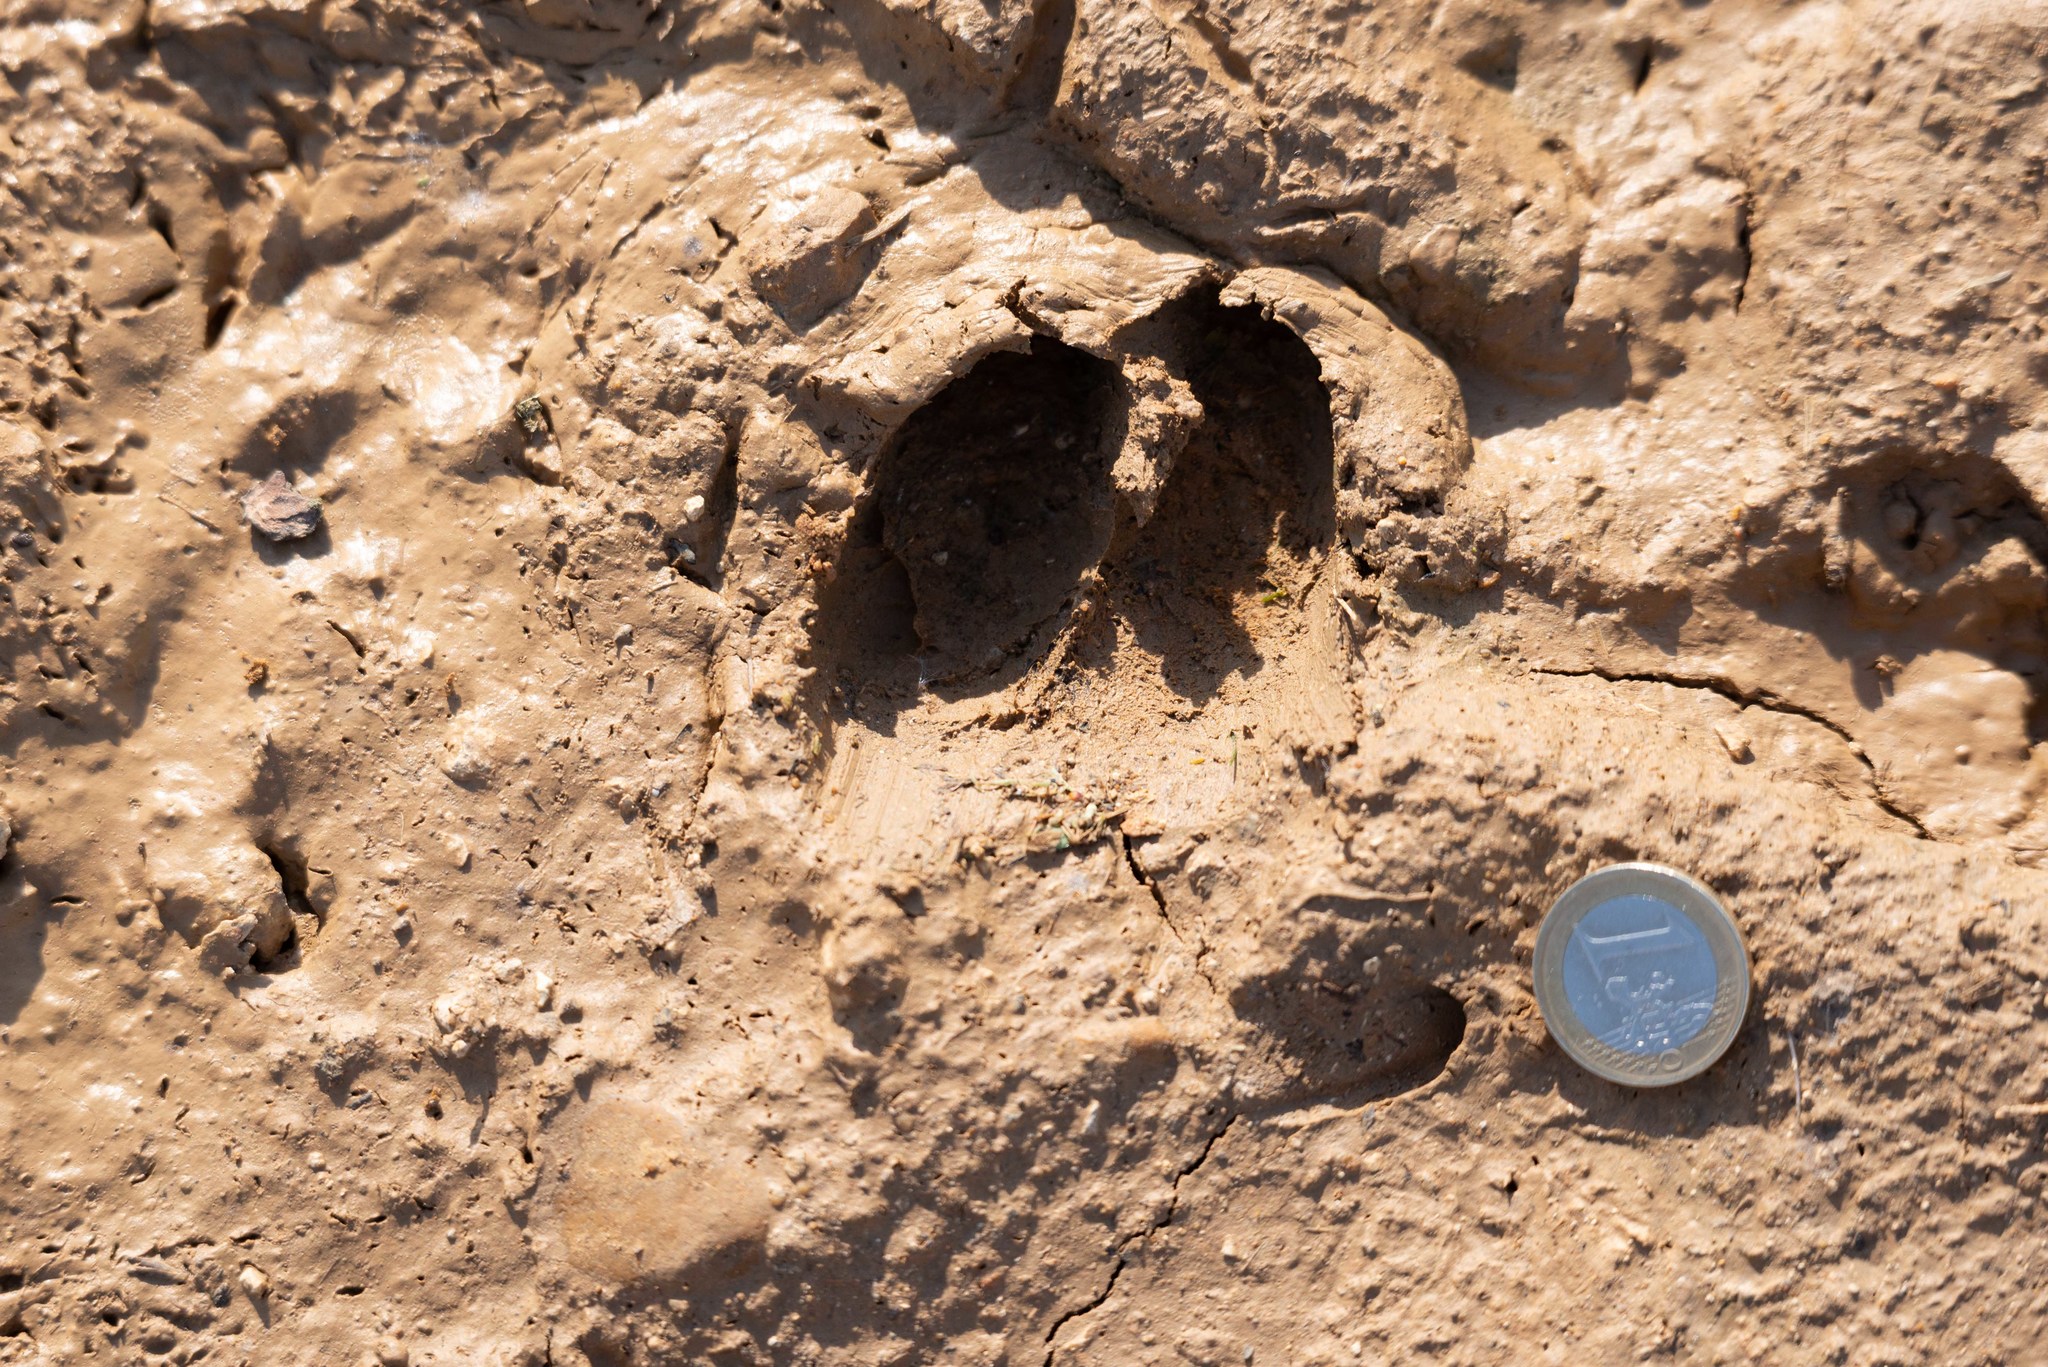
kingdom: Animalia
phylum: Chordata
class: Mammalia
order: Artiodactyla
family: Suidae
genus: Sus
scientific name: Sus scrofa
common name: Wild boar
